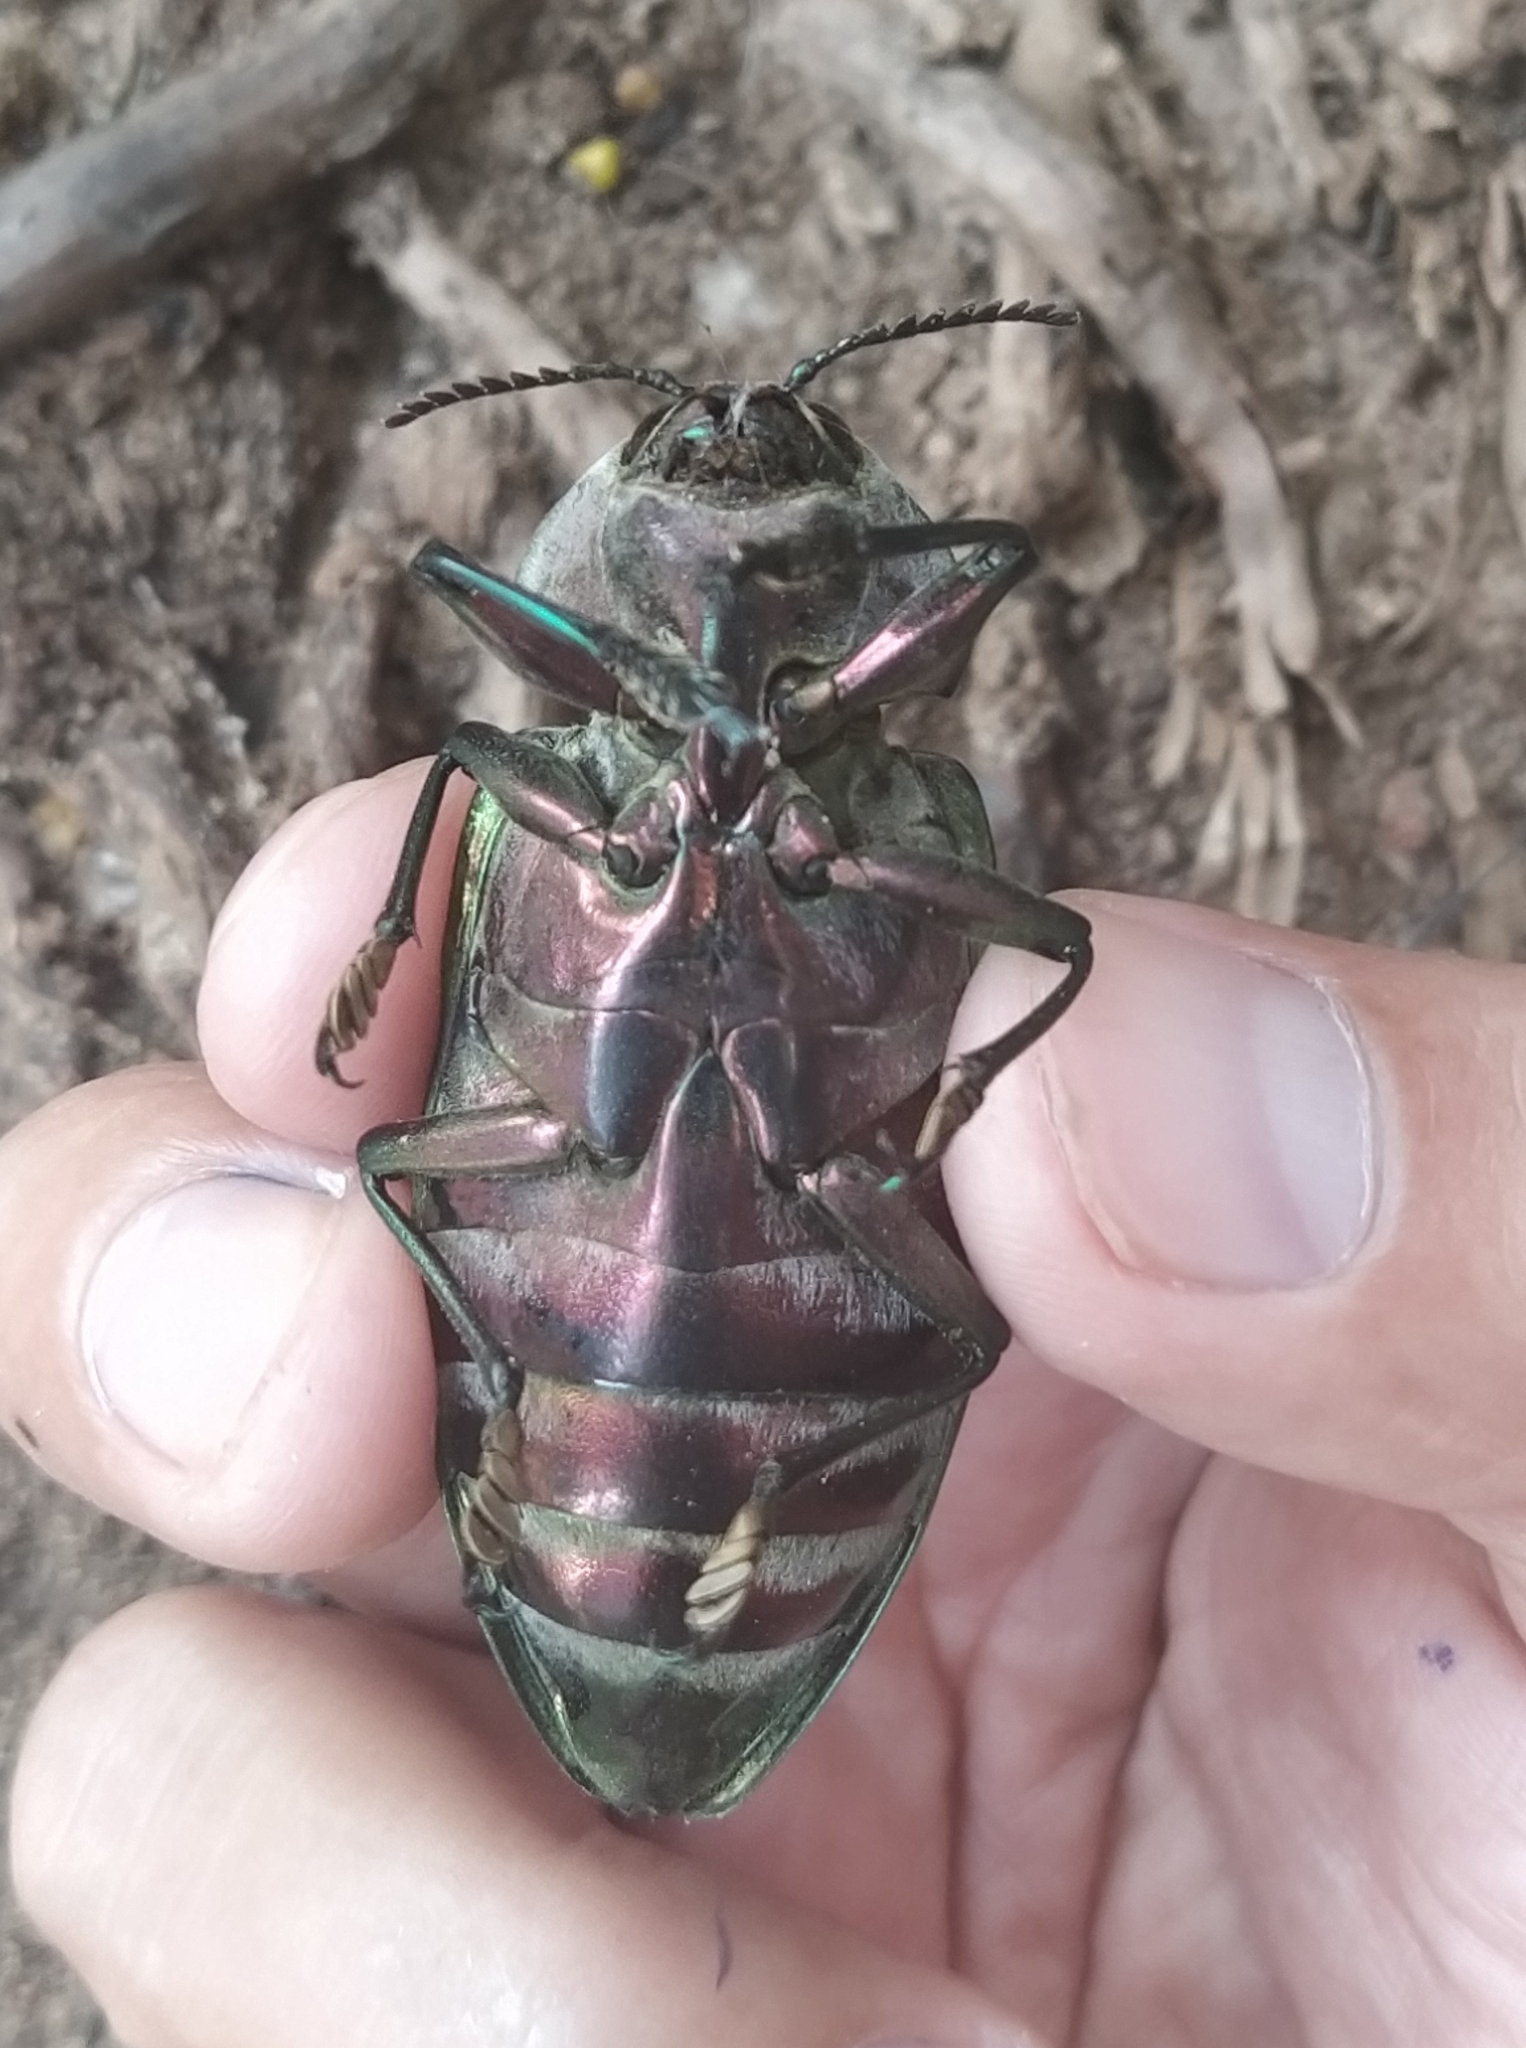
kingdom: Animalia
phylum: Arthropoda
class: Insecta
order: Coleoptera
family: Buprestidae
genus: Euchroma
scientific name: Euchroma giganteum
